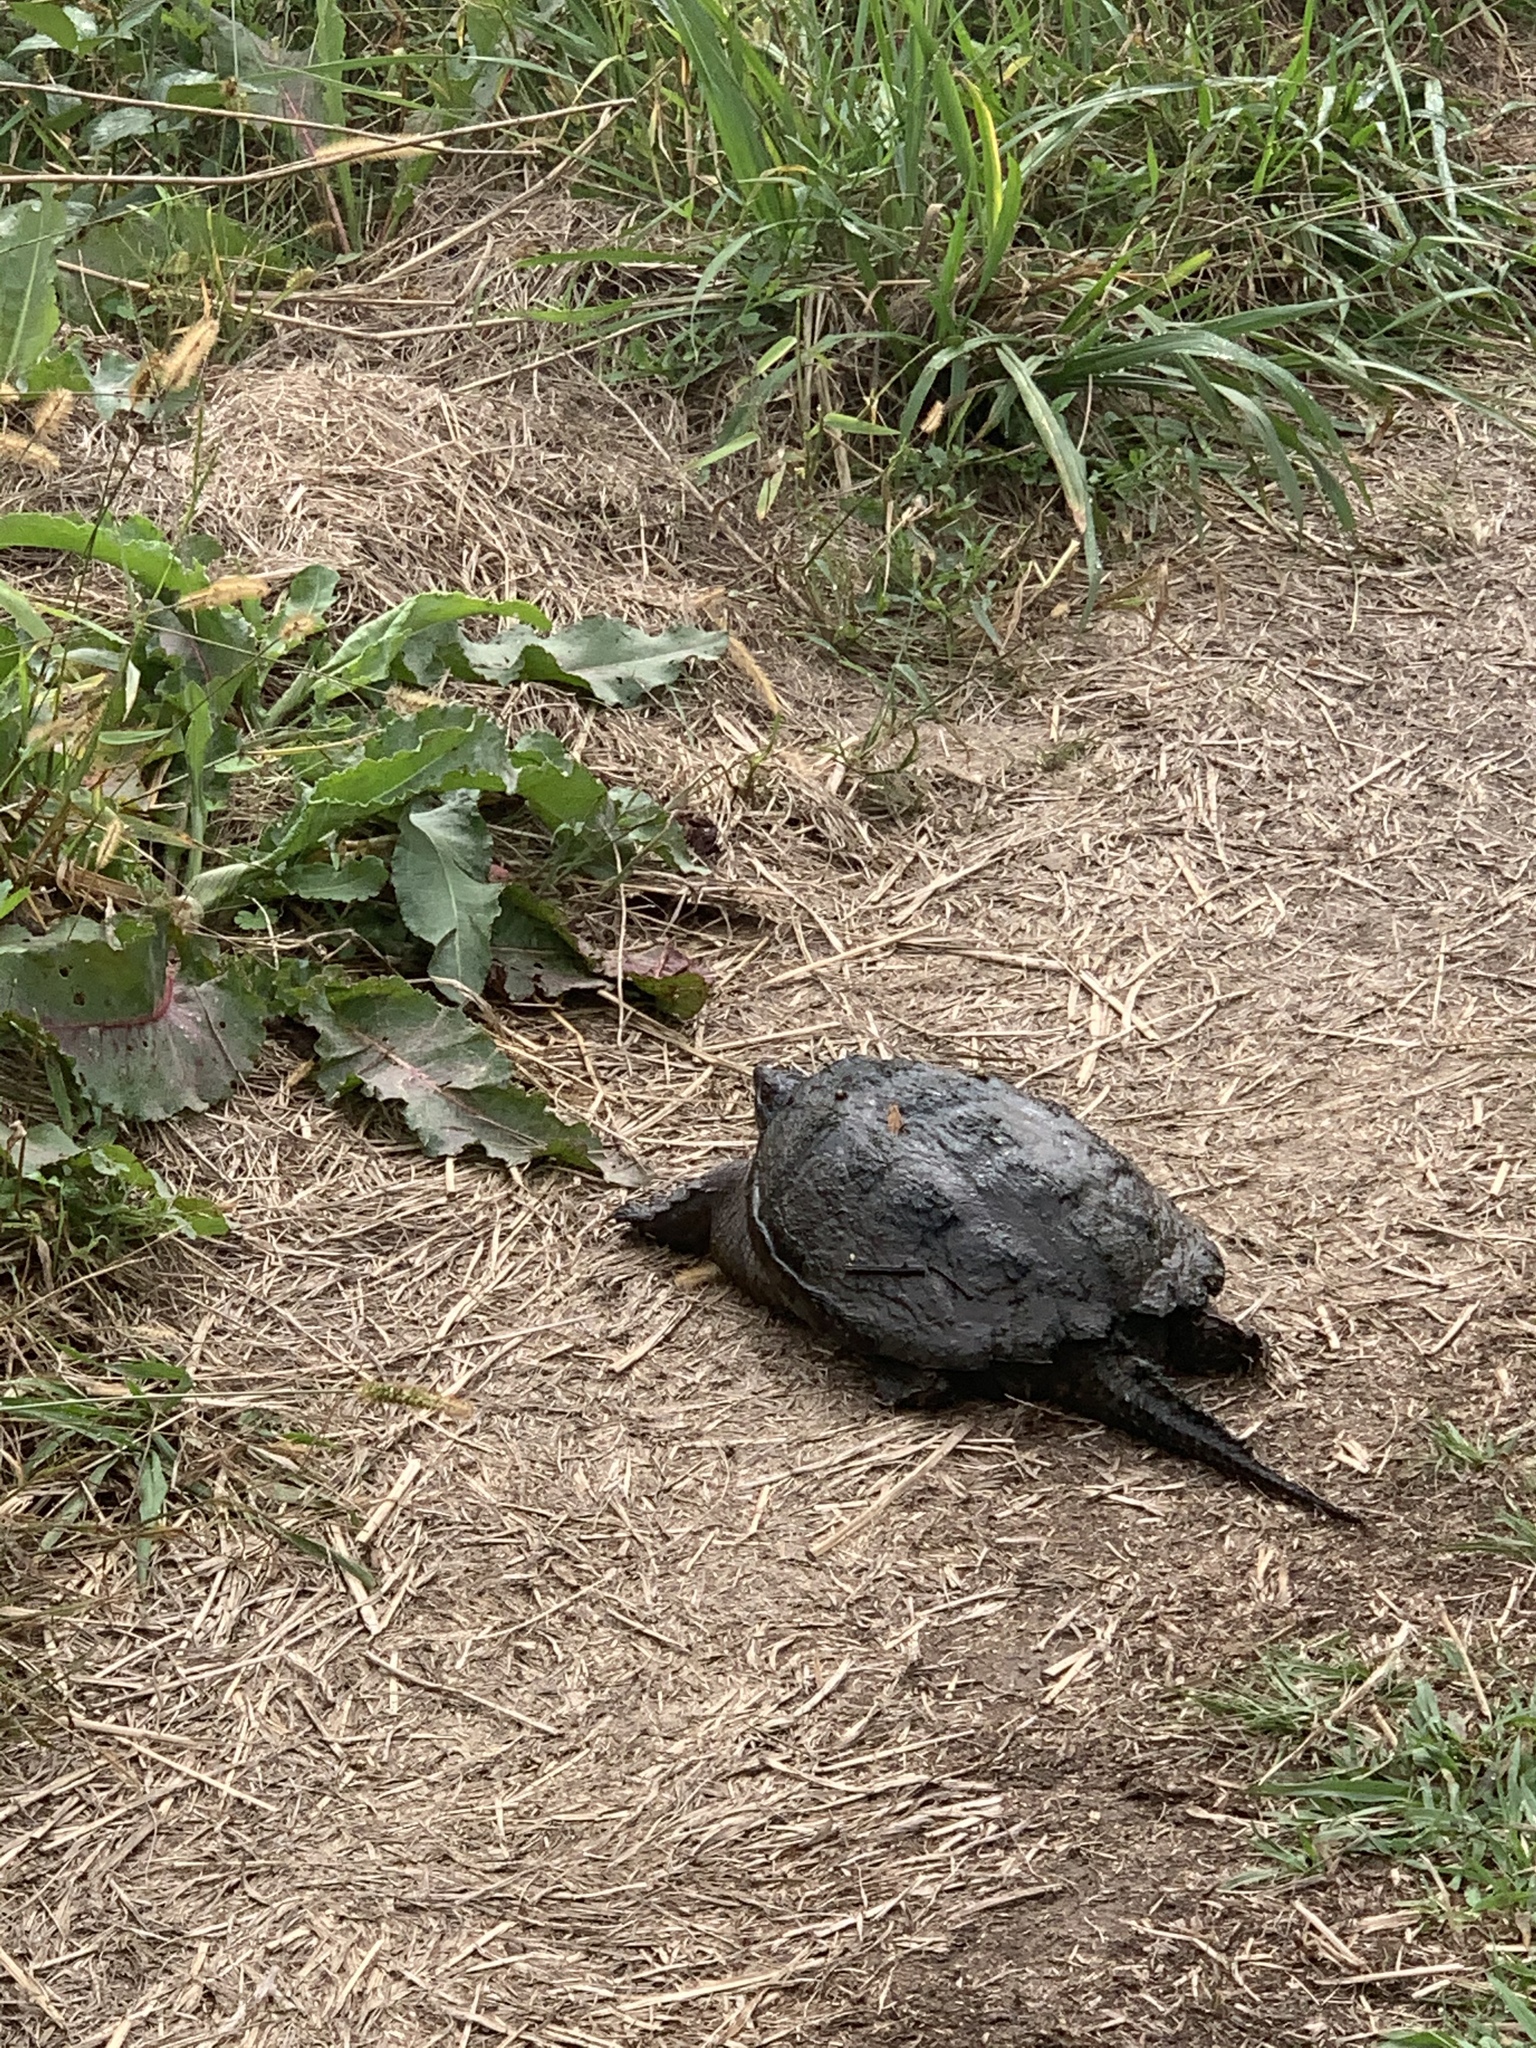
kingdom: Animalia
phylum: Chordata
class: Testudines
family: Chelydridae
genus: Chelydra
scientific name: Chelydra serpentina
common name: Common snapping turtle
